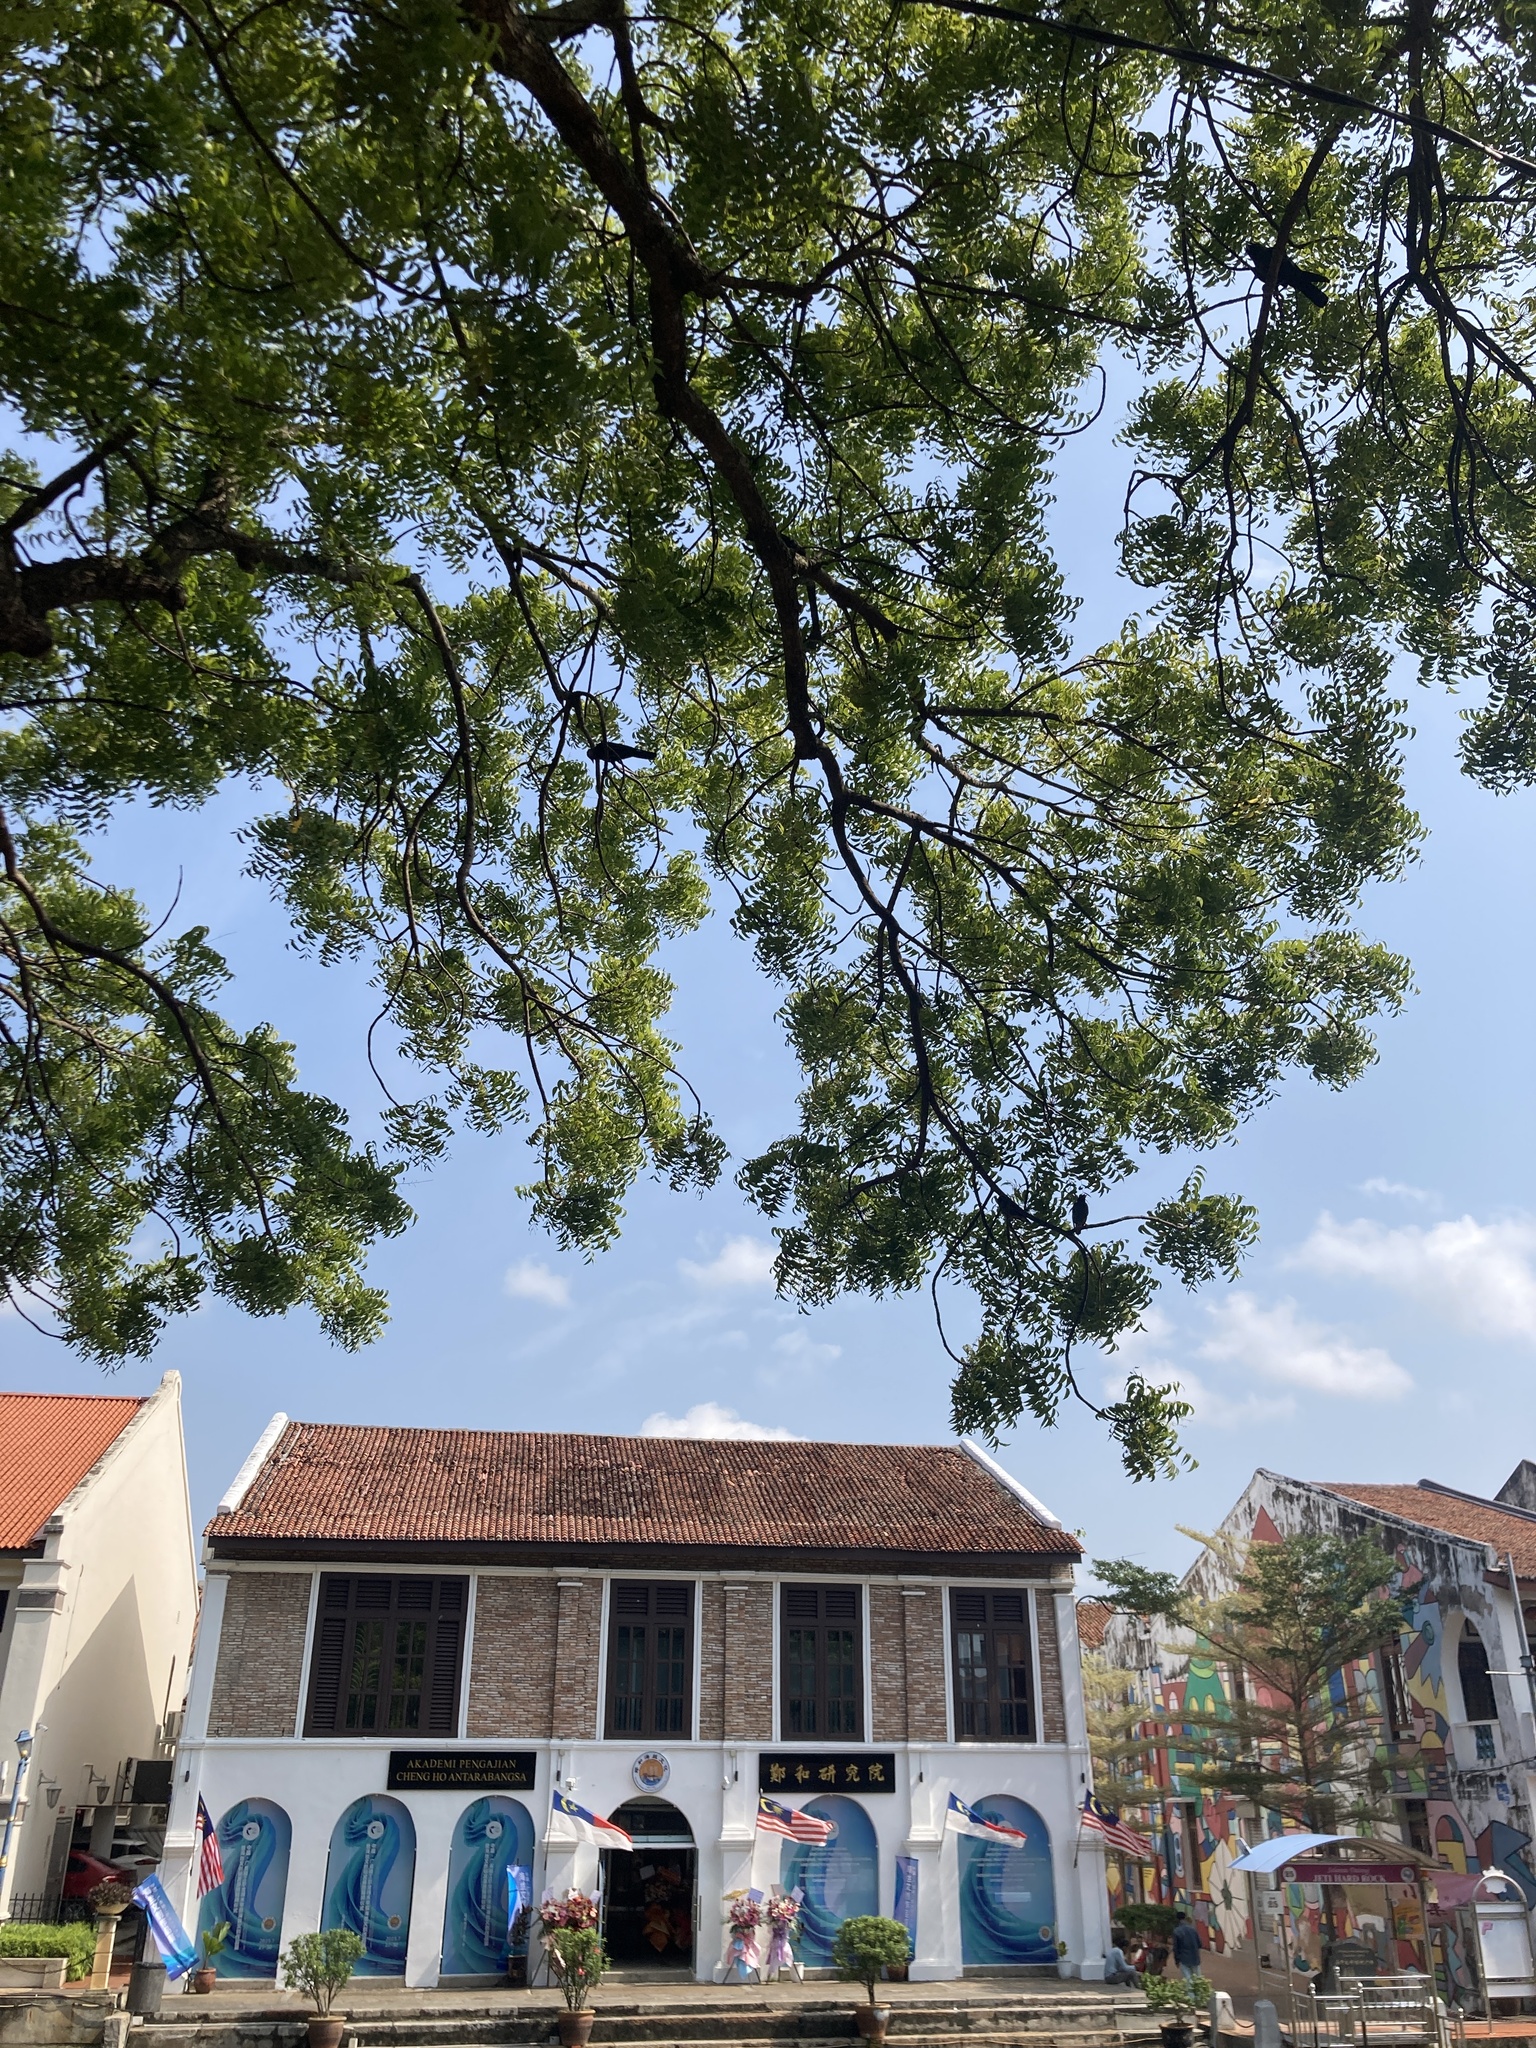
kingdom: Plantae
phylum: Tracheophyta
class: Magnoliopsida
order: Sapindales
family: Meliaceae
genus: Azadirachta
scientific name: Azadirachta indica
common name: Neem
